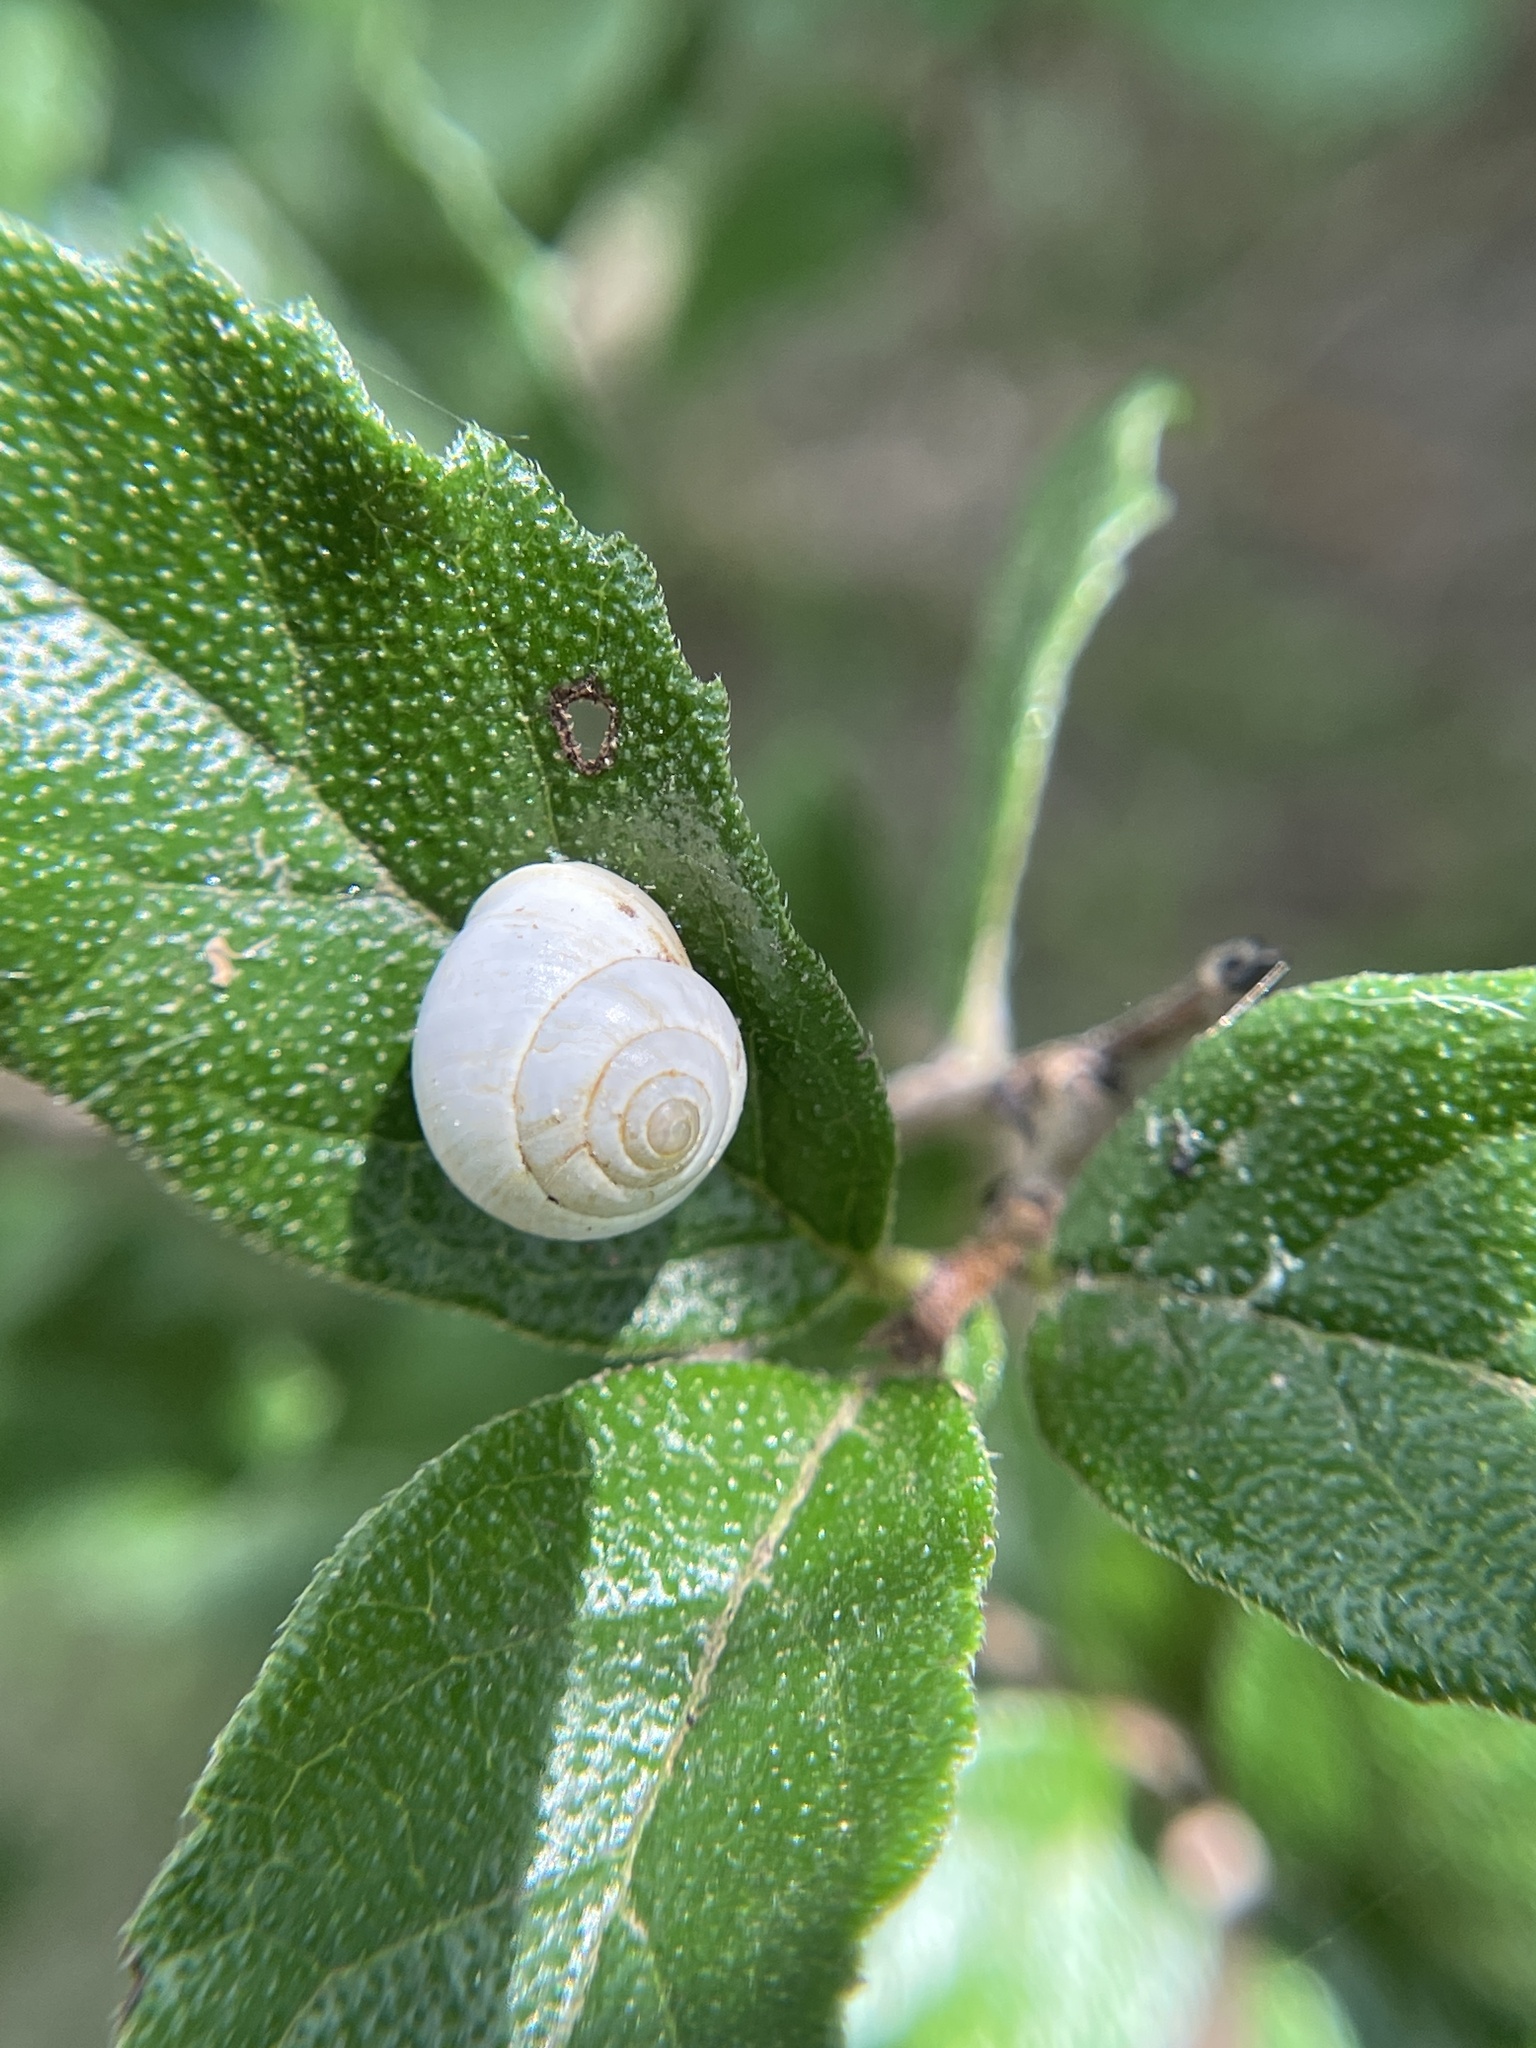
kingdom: Animalia
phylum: Mollusca
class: Gastropoda
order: Cycloneritida
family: Helicinidae
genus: Helicina
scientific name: Helicina orbiculata
